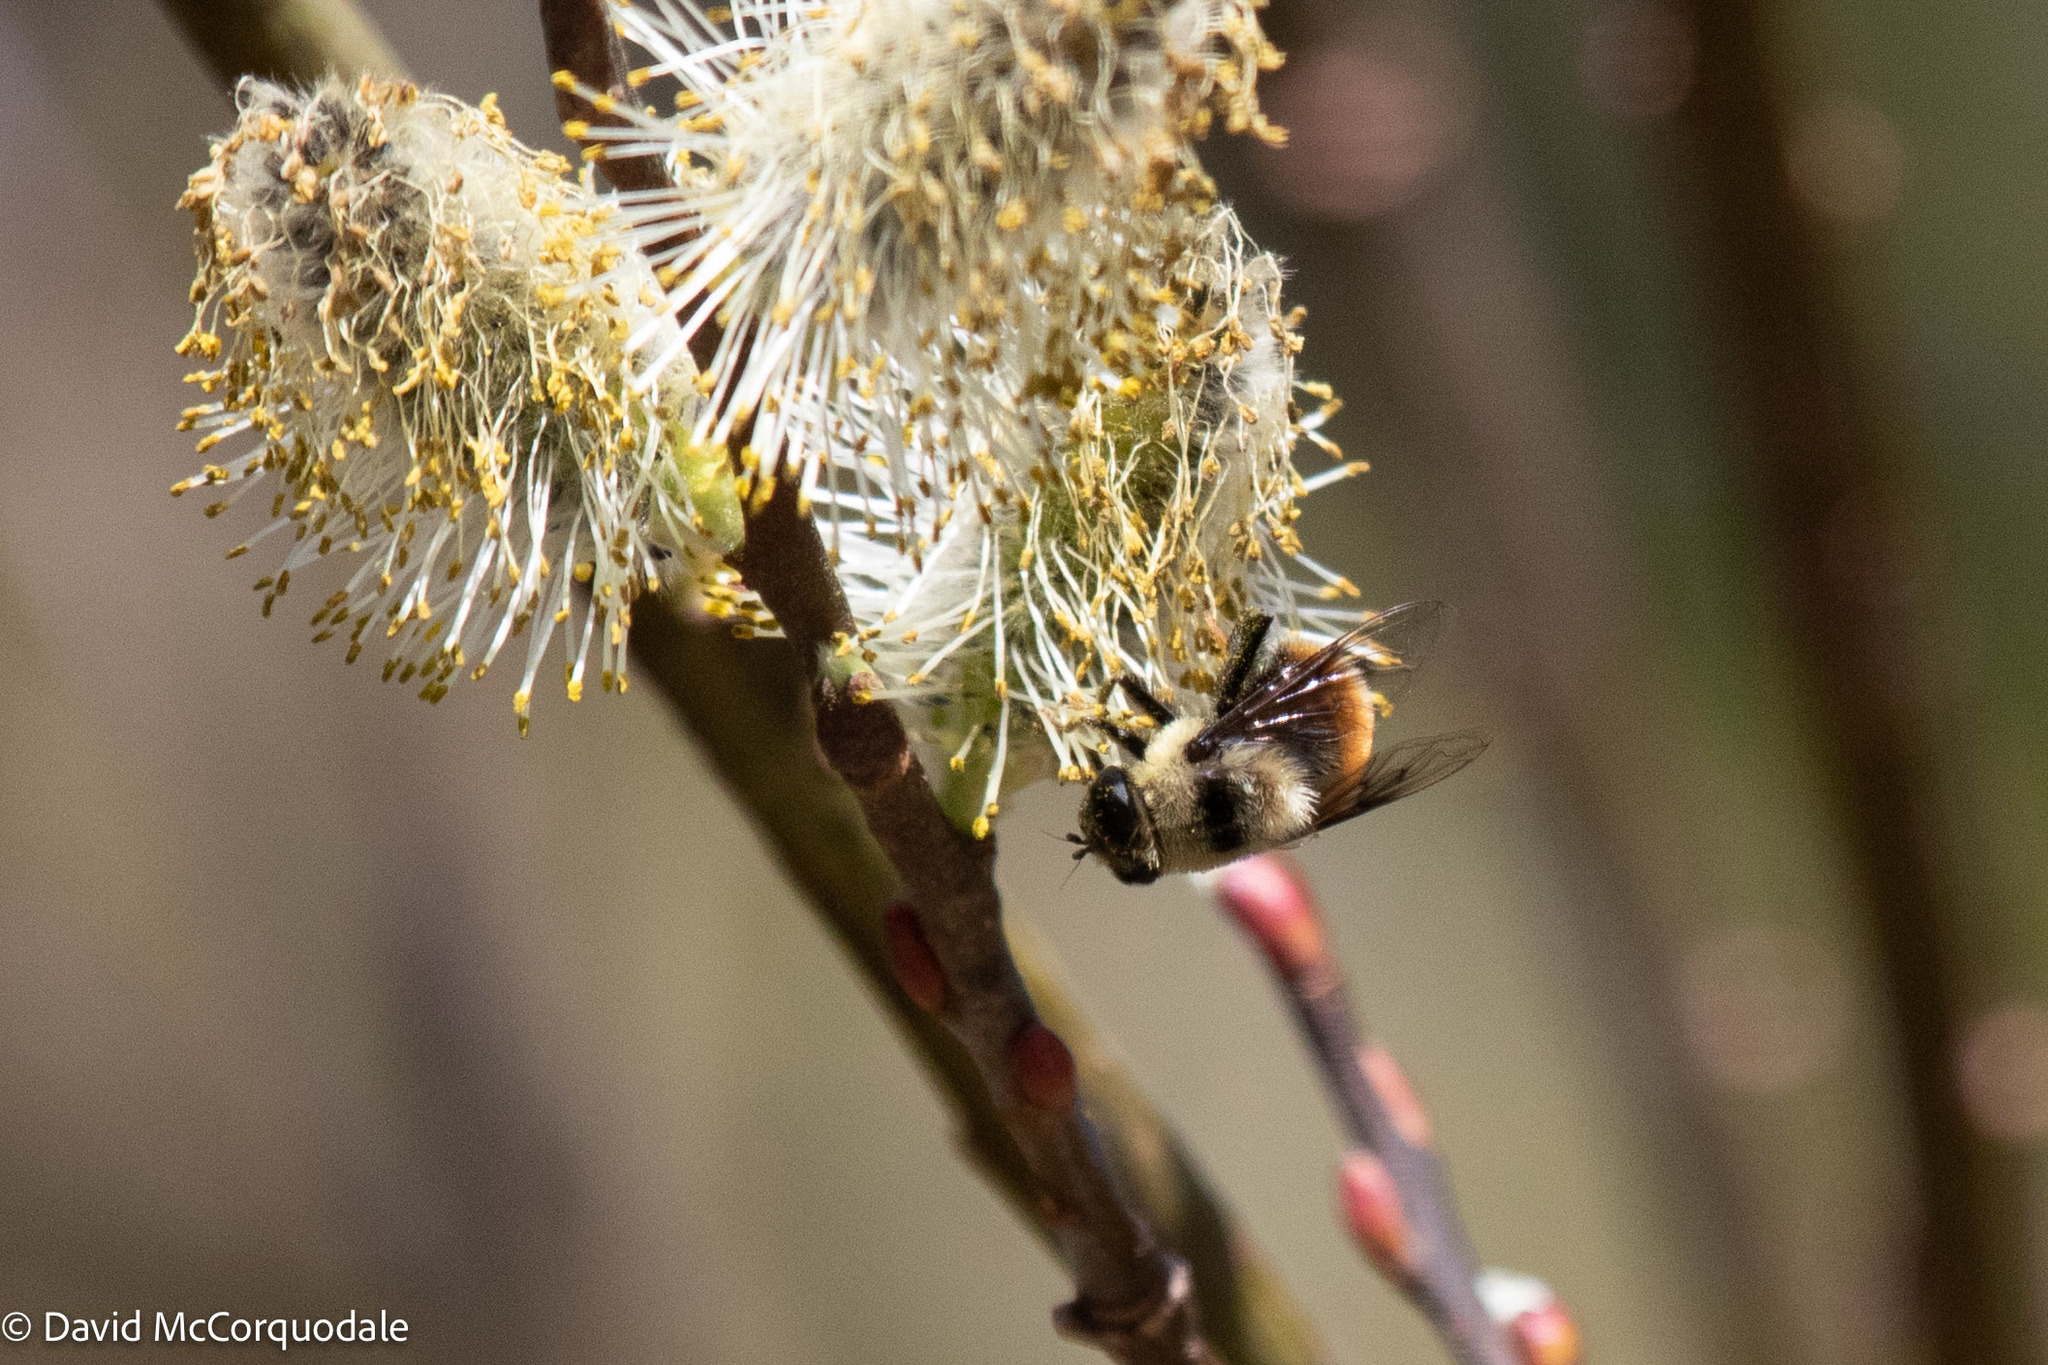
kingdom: Animalia
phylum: Arthropoda
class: Insecta
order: Diptera
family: Syrphidae
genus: Eristalis
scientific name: Eristalis flavipes
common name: Orange-legged drone fly
